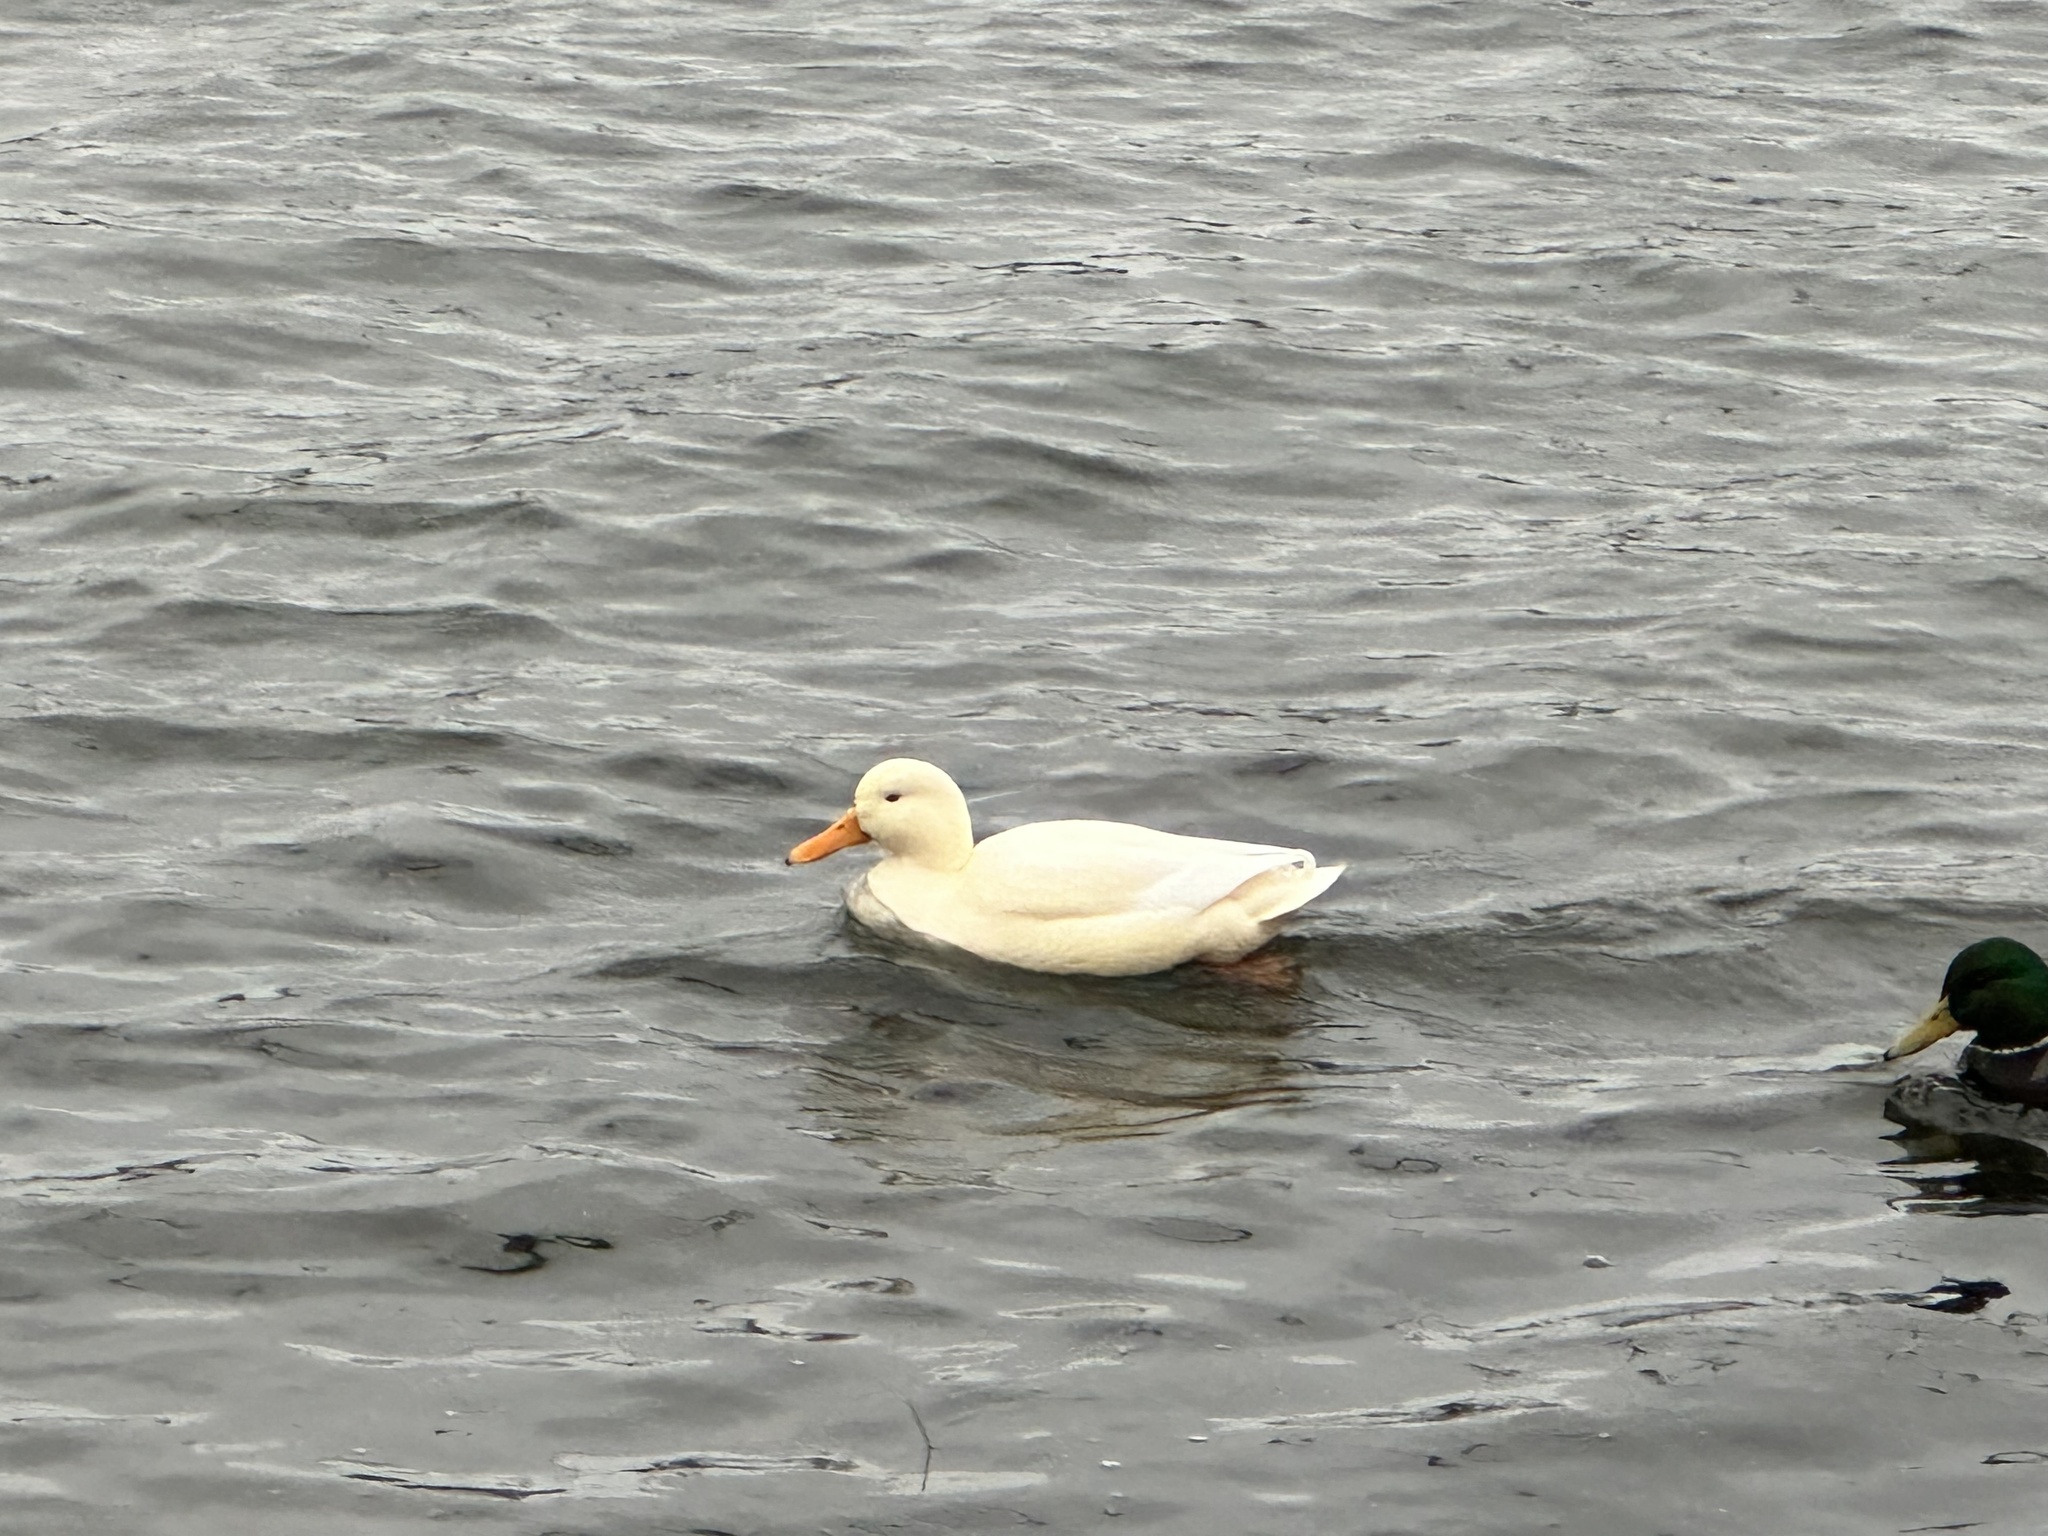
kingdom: Animalia
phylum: Chordata
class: Aves
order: Anseriformes
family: Anatidae
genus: Anas
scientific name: Anas platyrhynchos
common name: Mallard
